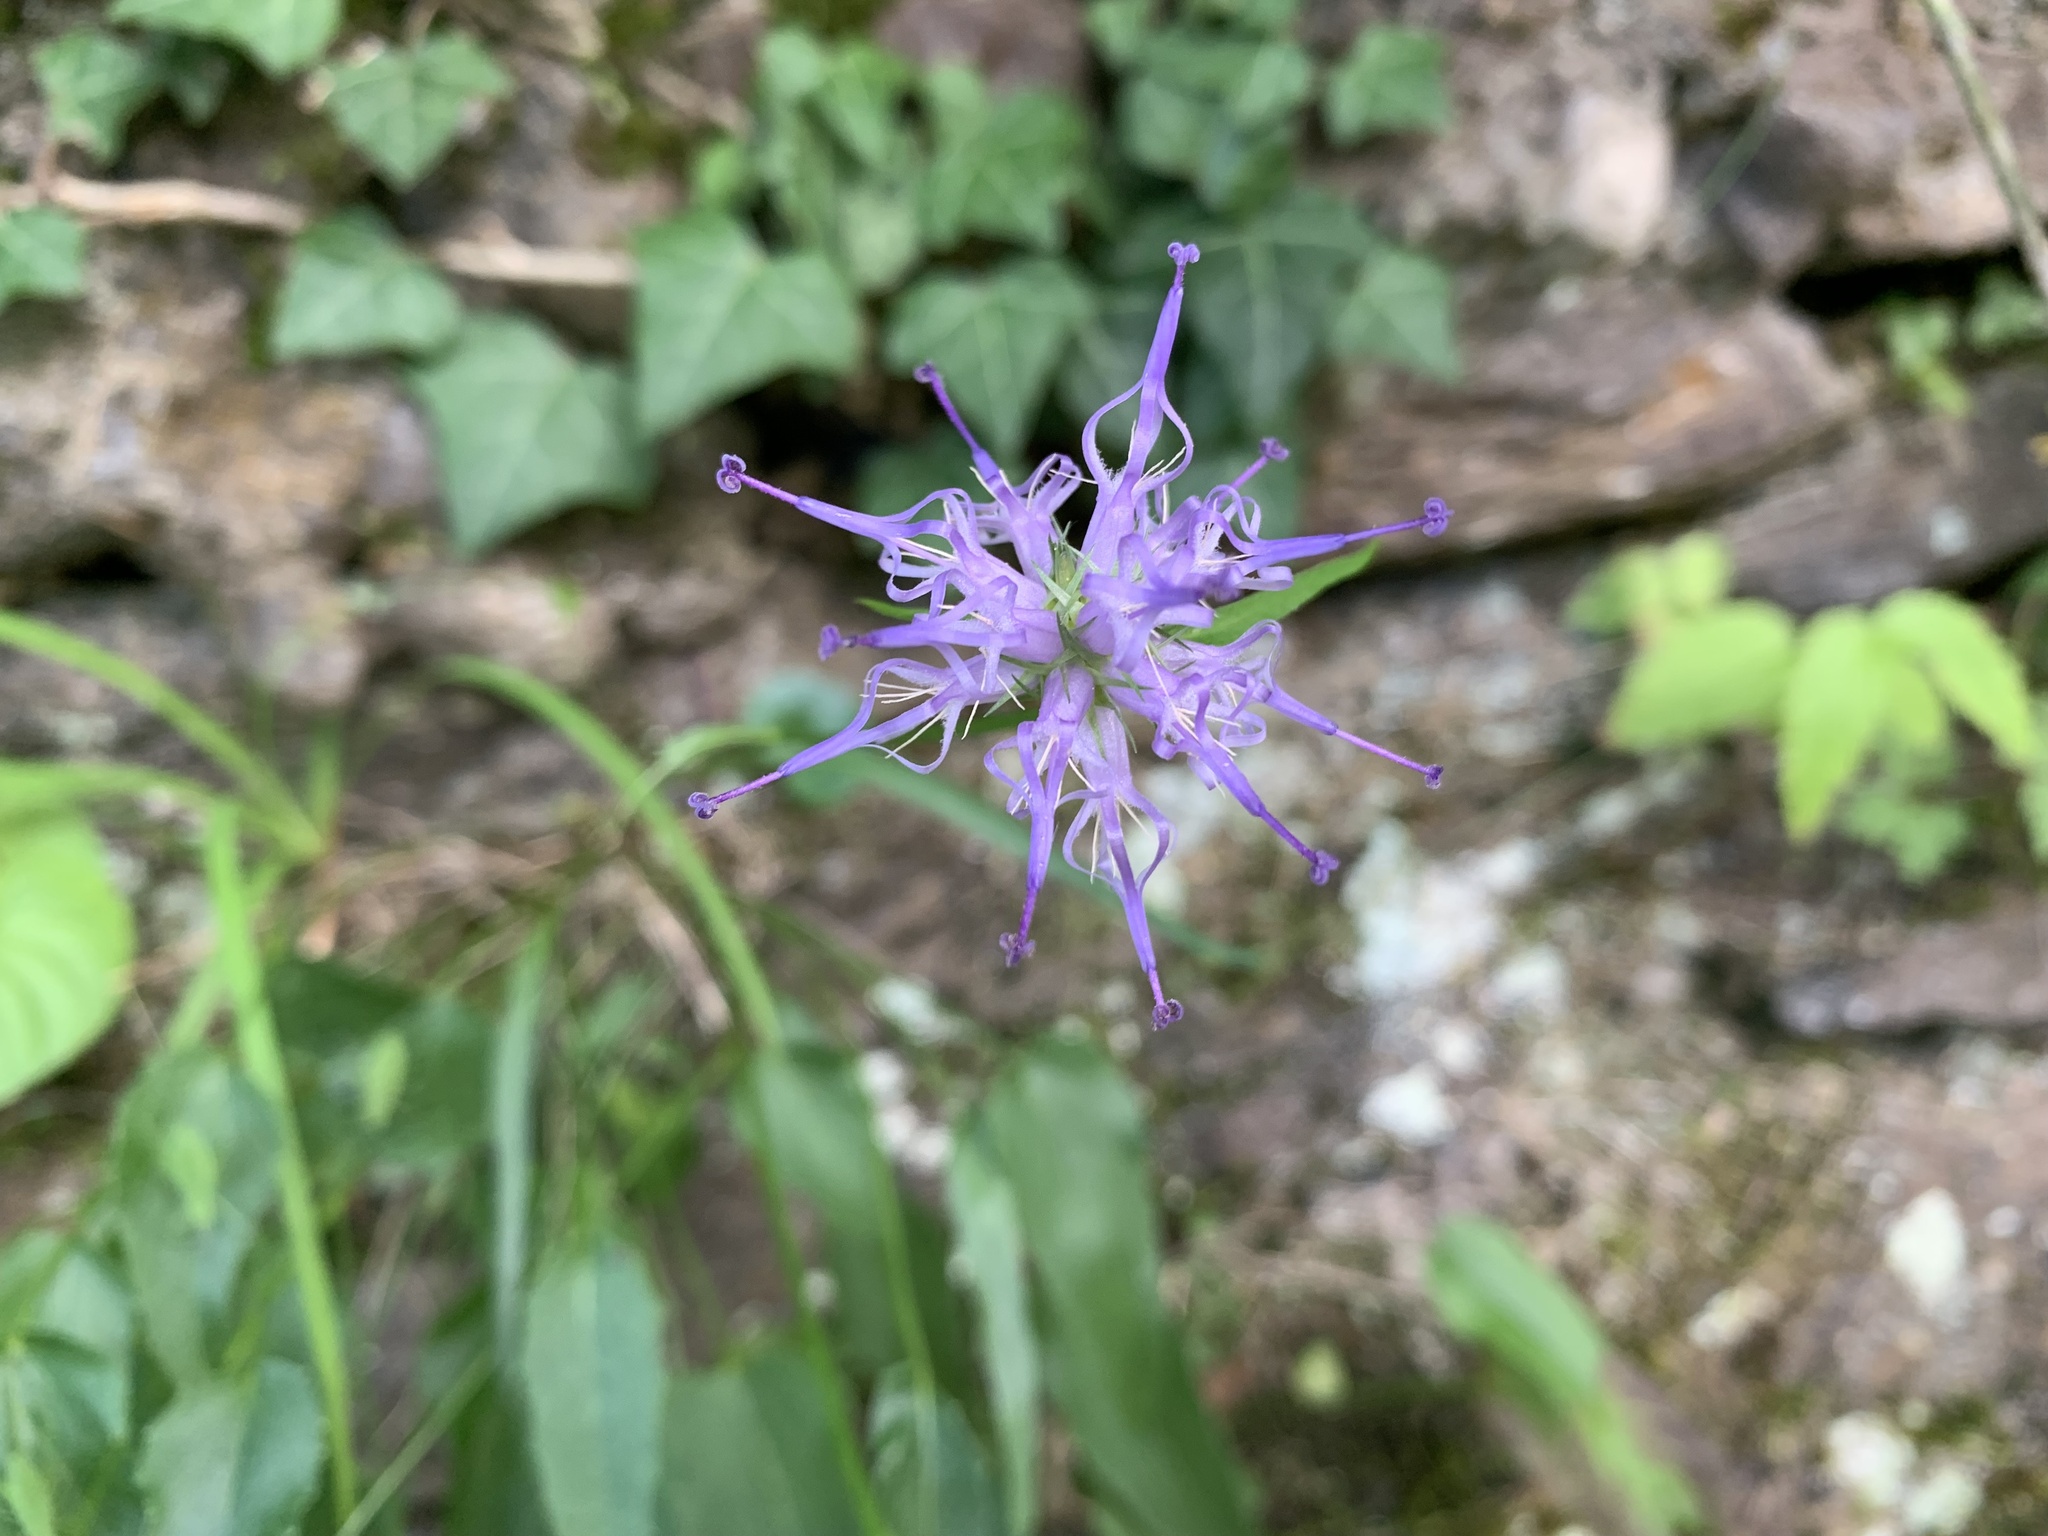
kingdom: Plantae
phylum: Tracheophyta
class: Magnoliopsida
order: Asterales
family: Campanulaceae
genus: Phyteuma
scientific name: Phyteuma scheuchzeri
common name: Oxford rampion
